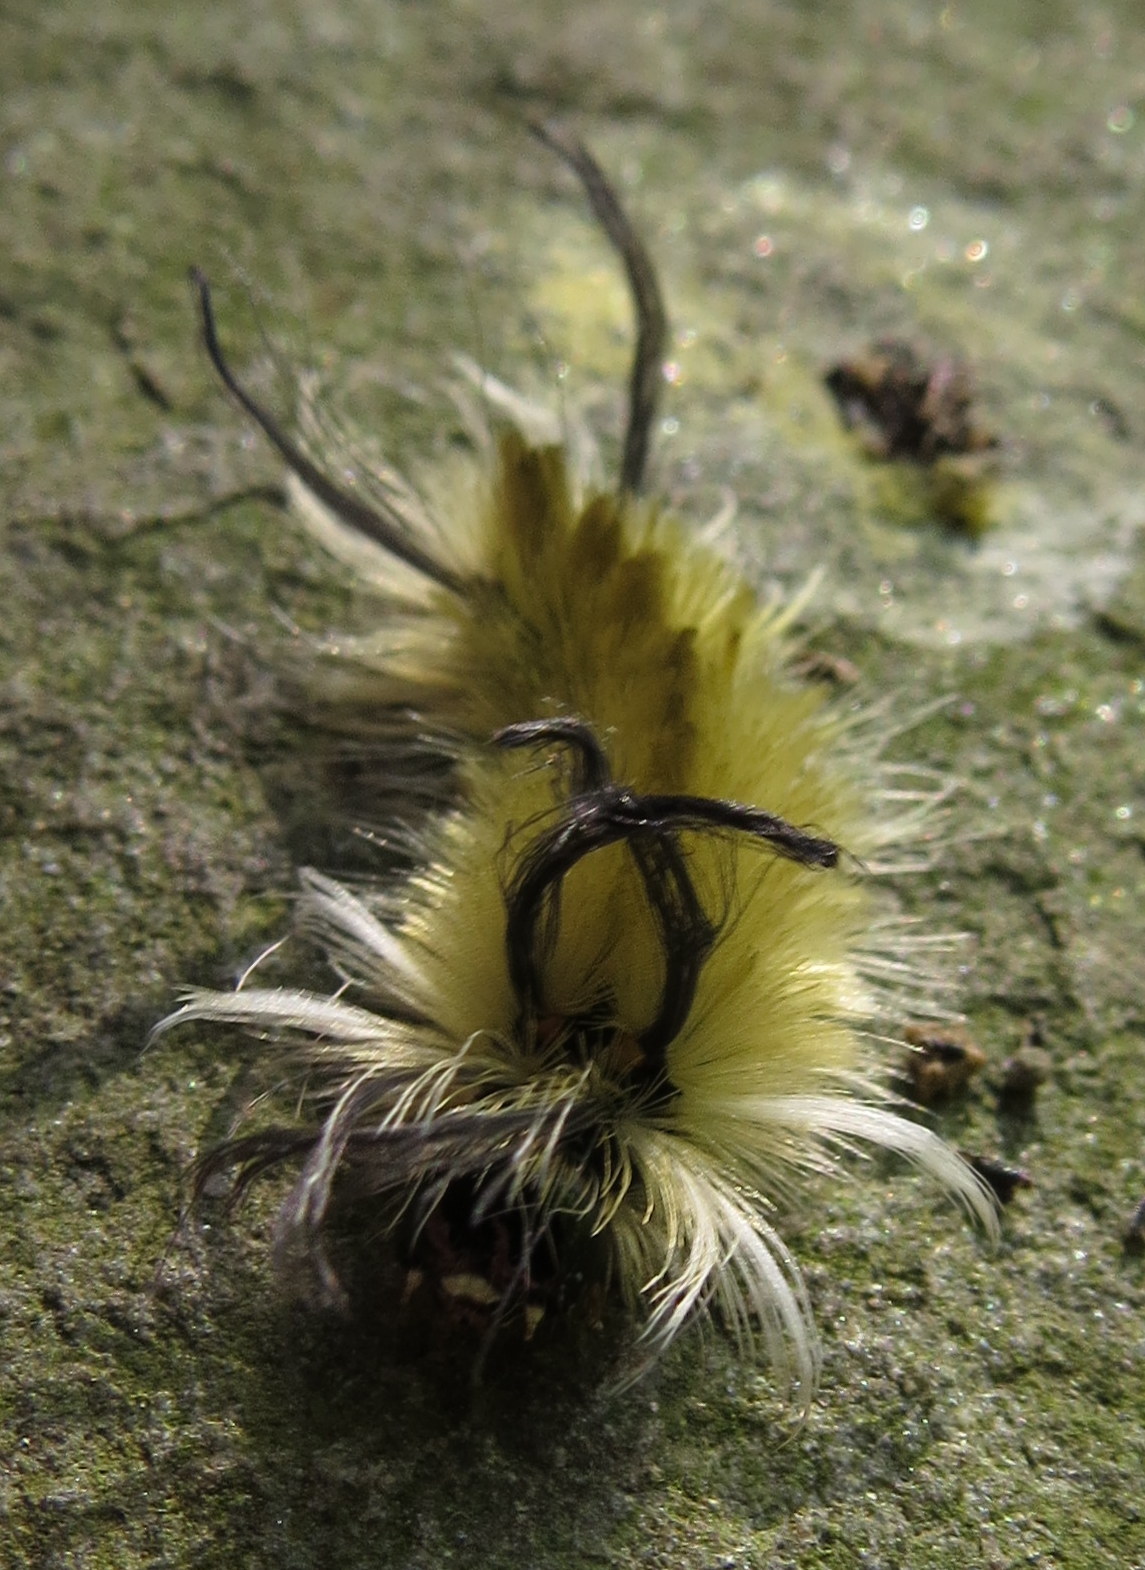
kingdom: Animalia
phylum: Arthropoda
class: Insecta
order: Lepidoptera
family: Erebidae
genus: Halysidota
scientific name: Halysidota tessellaris
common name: Banded tussock moth
